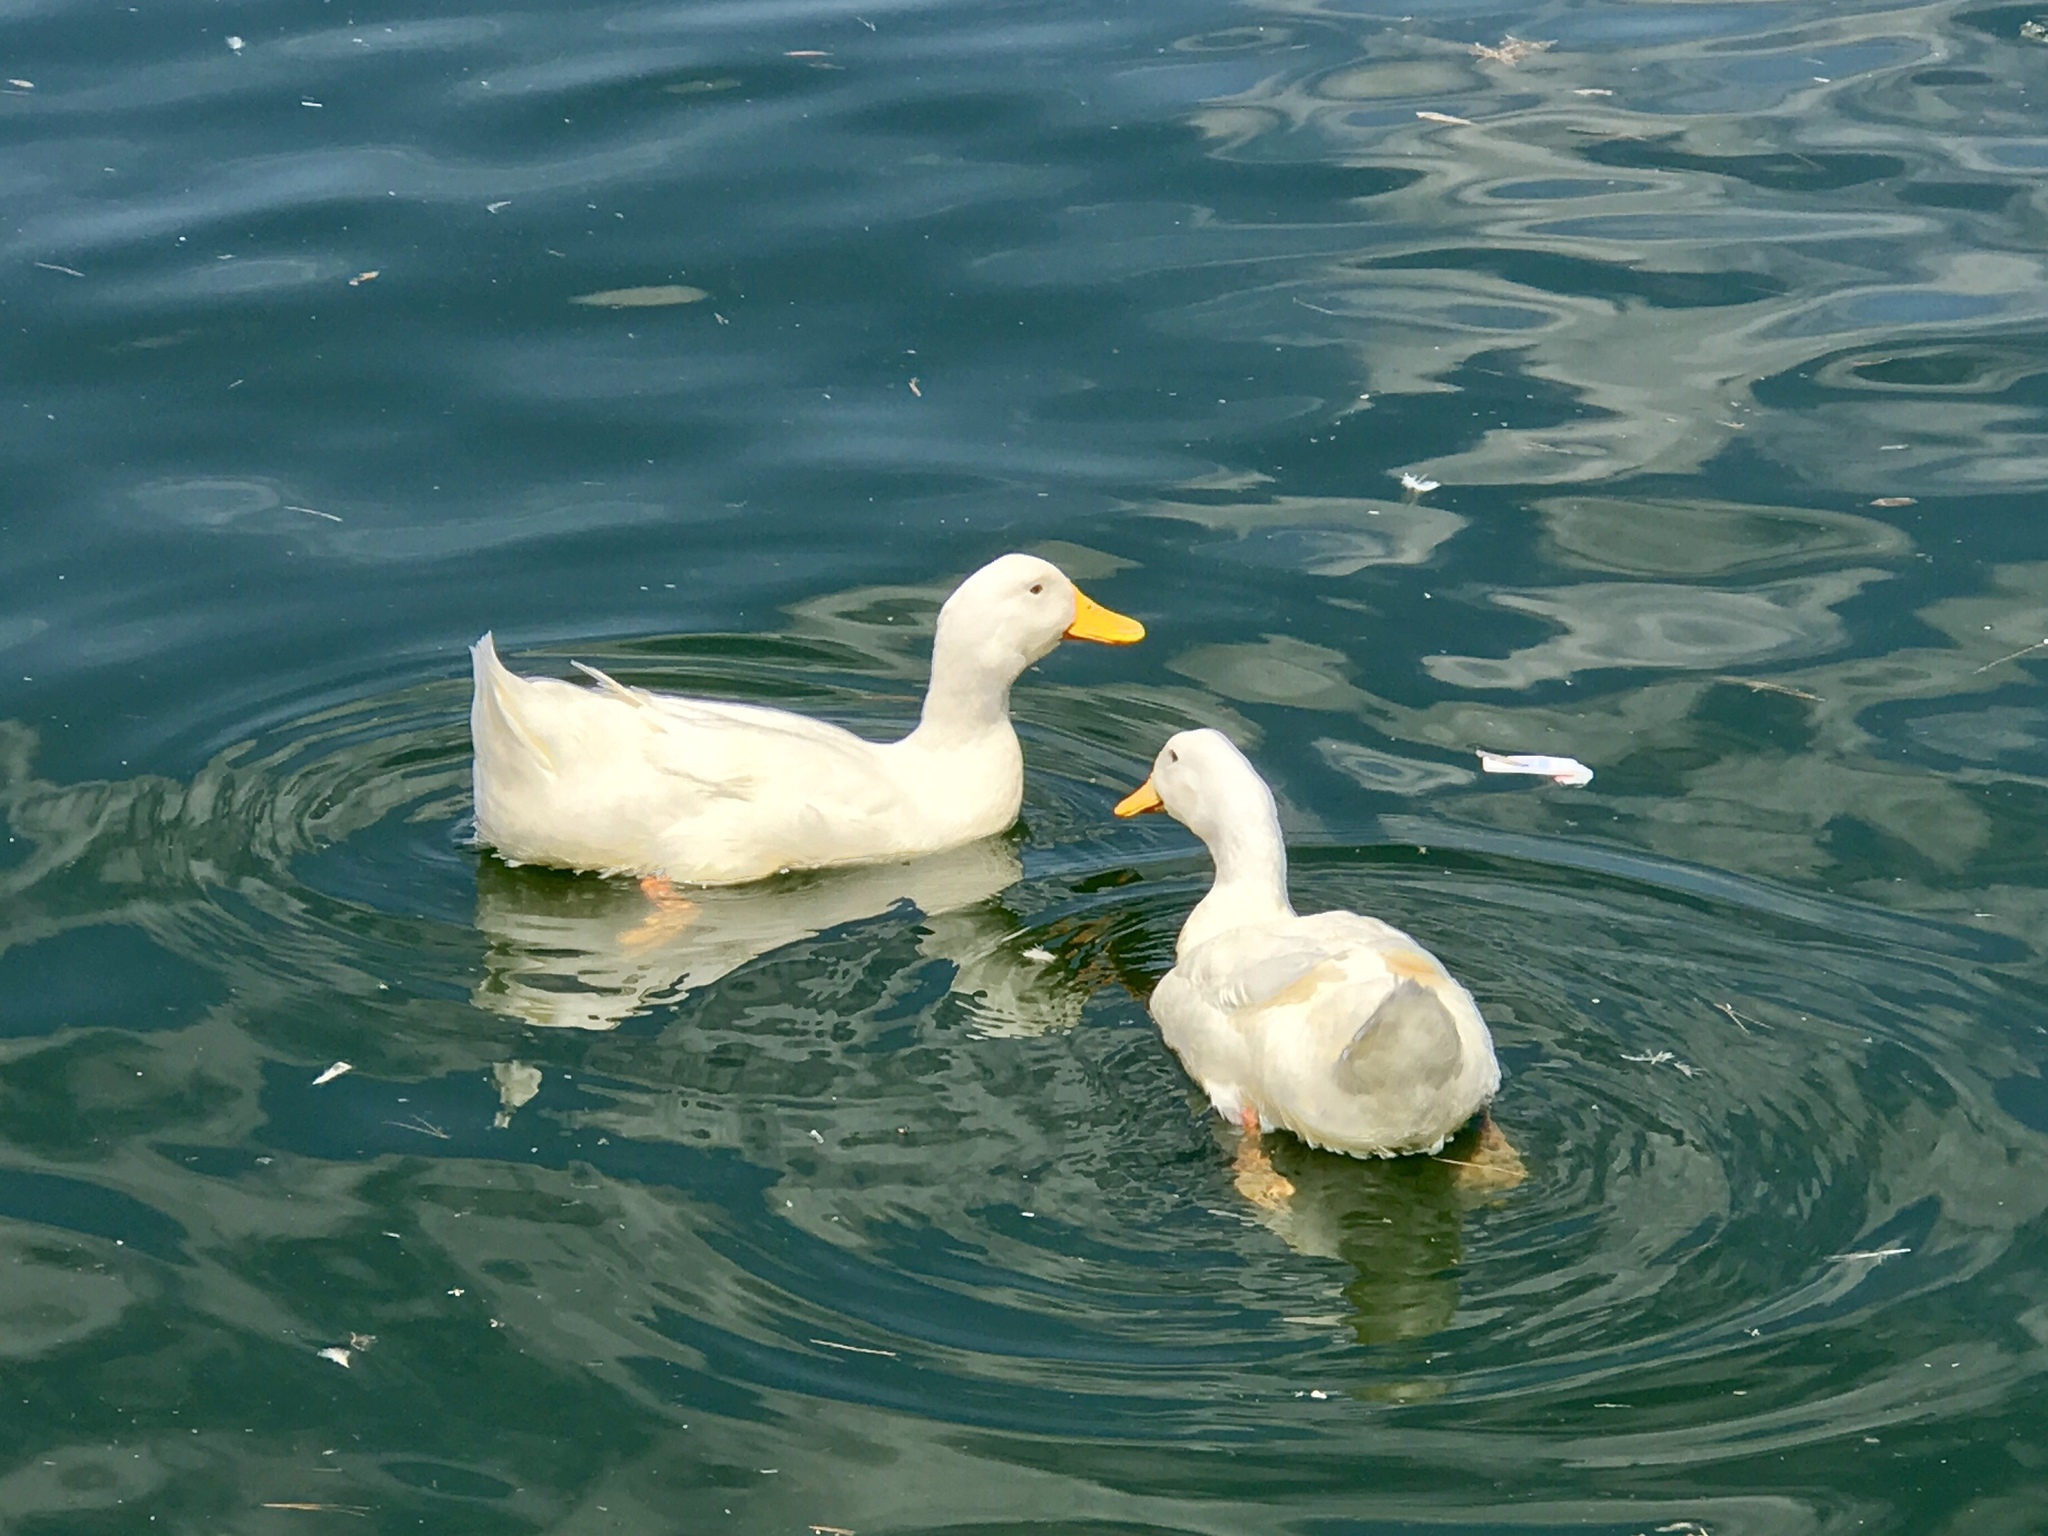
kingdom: Animalia
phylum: Chordata
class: Aves
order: Anseriformes
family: Anatidae
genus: Anas
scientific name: Anas platyrhynchos
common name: Mallard
